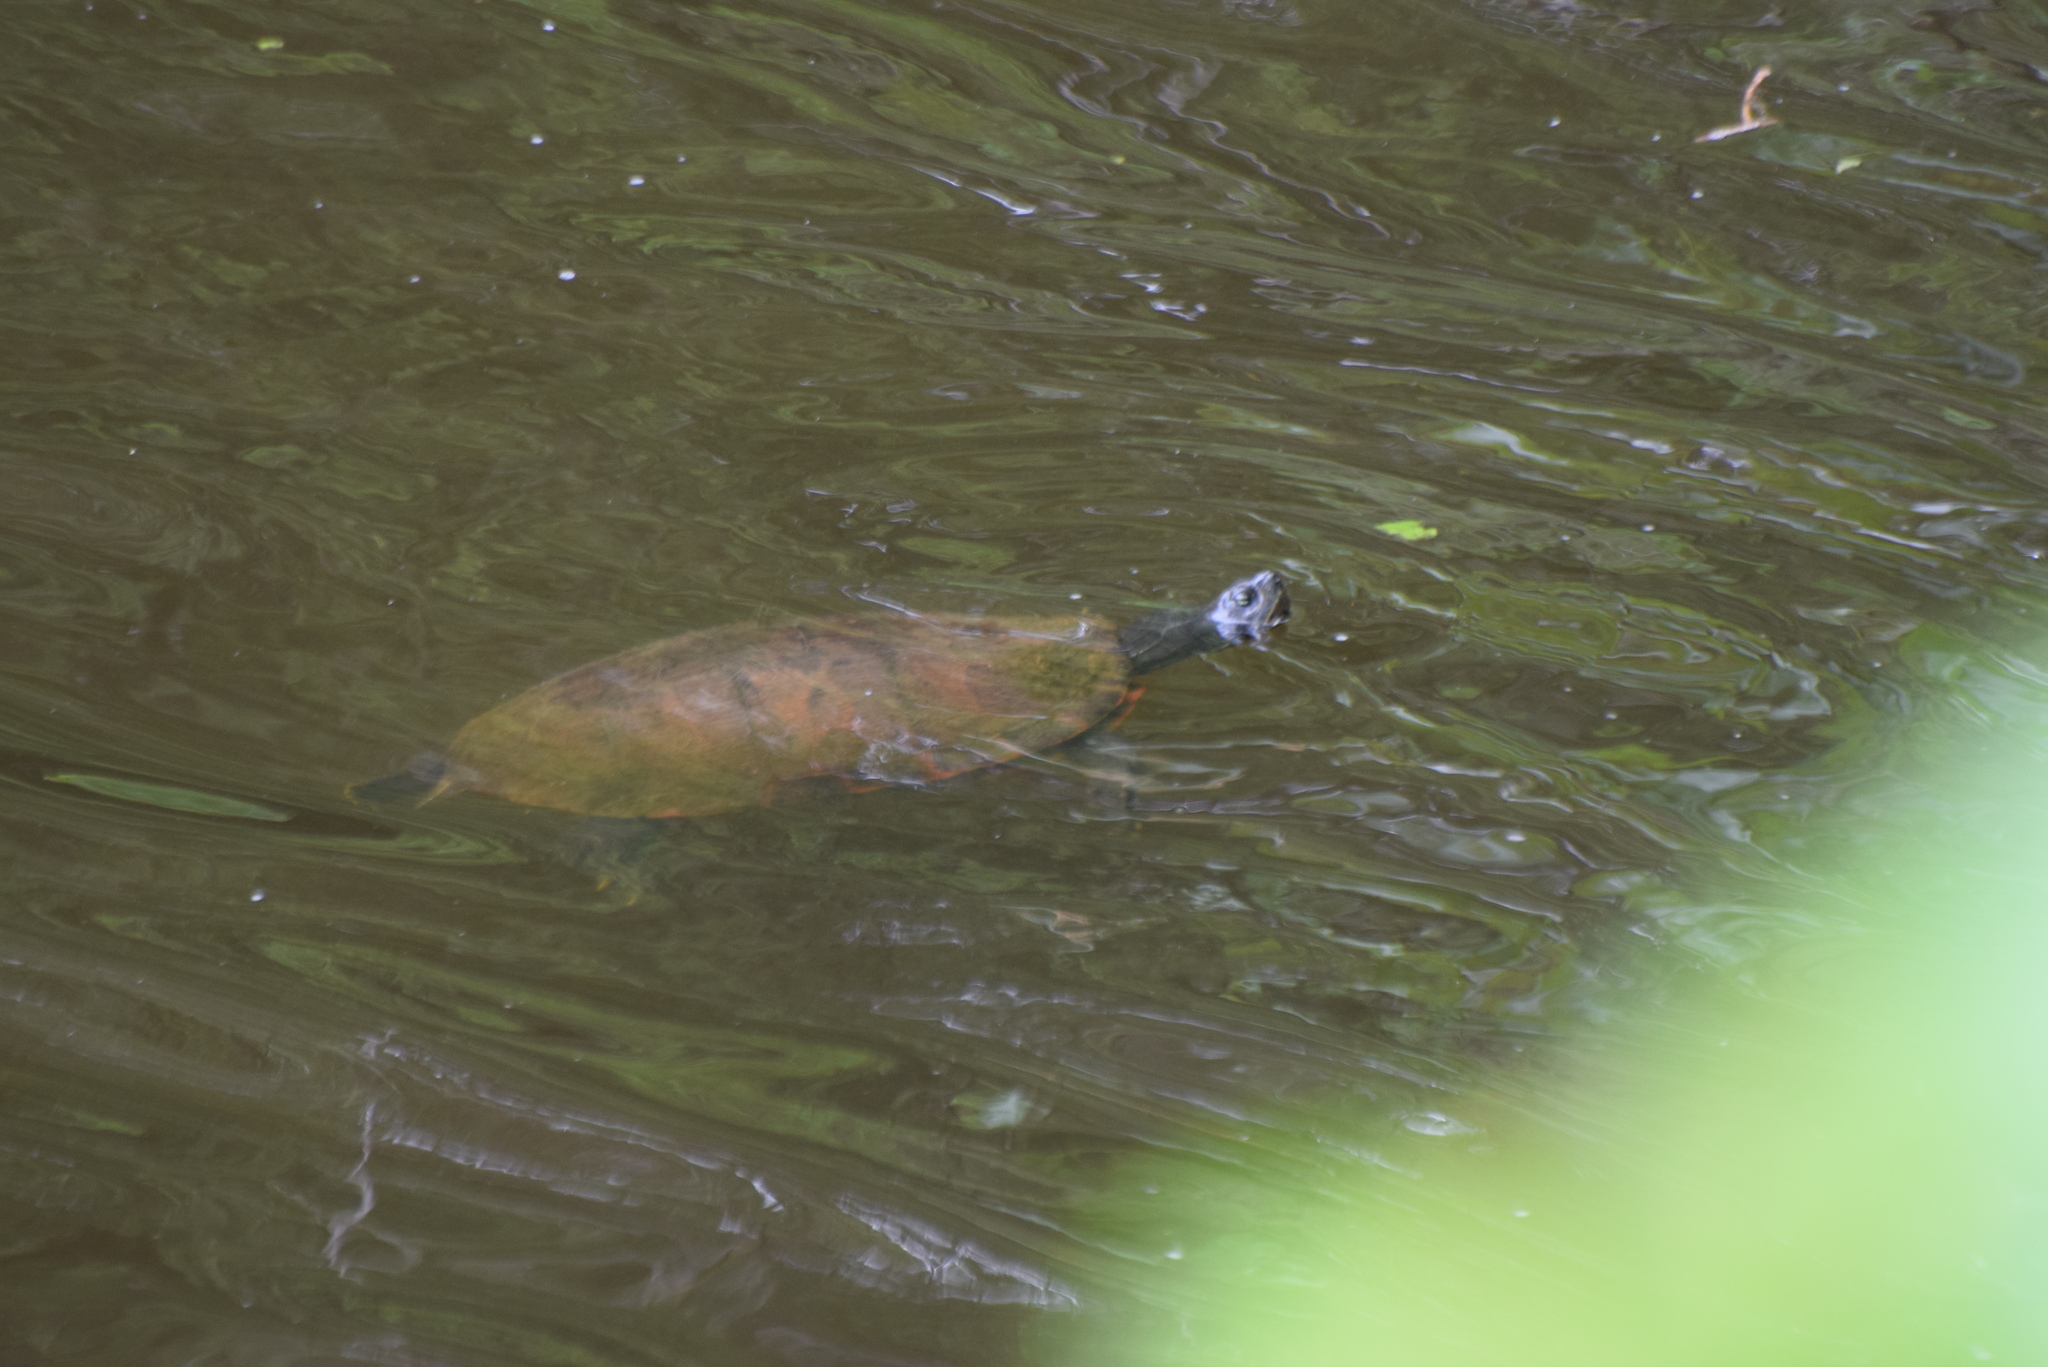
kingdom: Animalia
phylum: Chordata
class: Testudines
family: Emydidae
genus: Pseudemys
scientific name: Pseudemys rubriventris
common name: American red-bellied turtle
